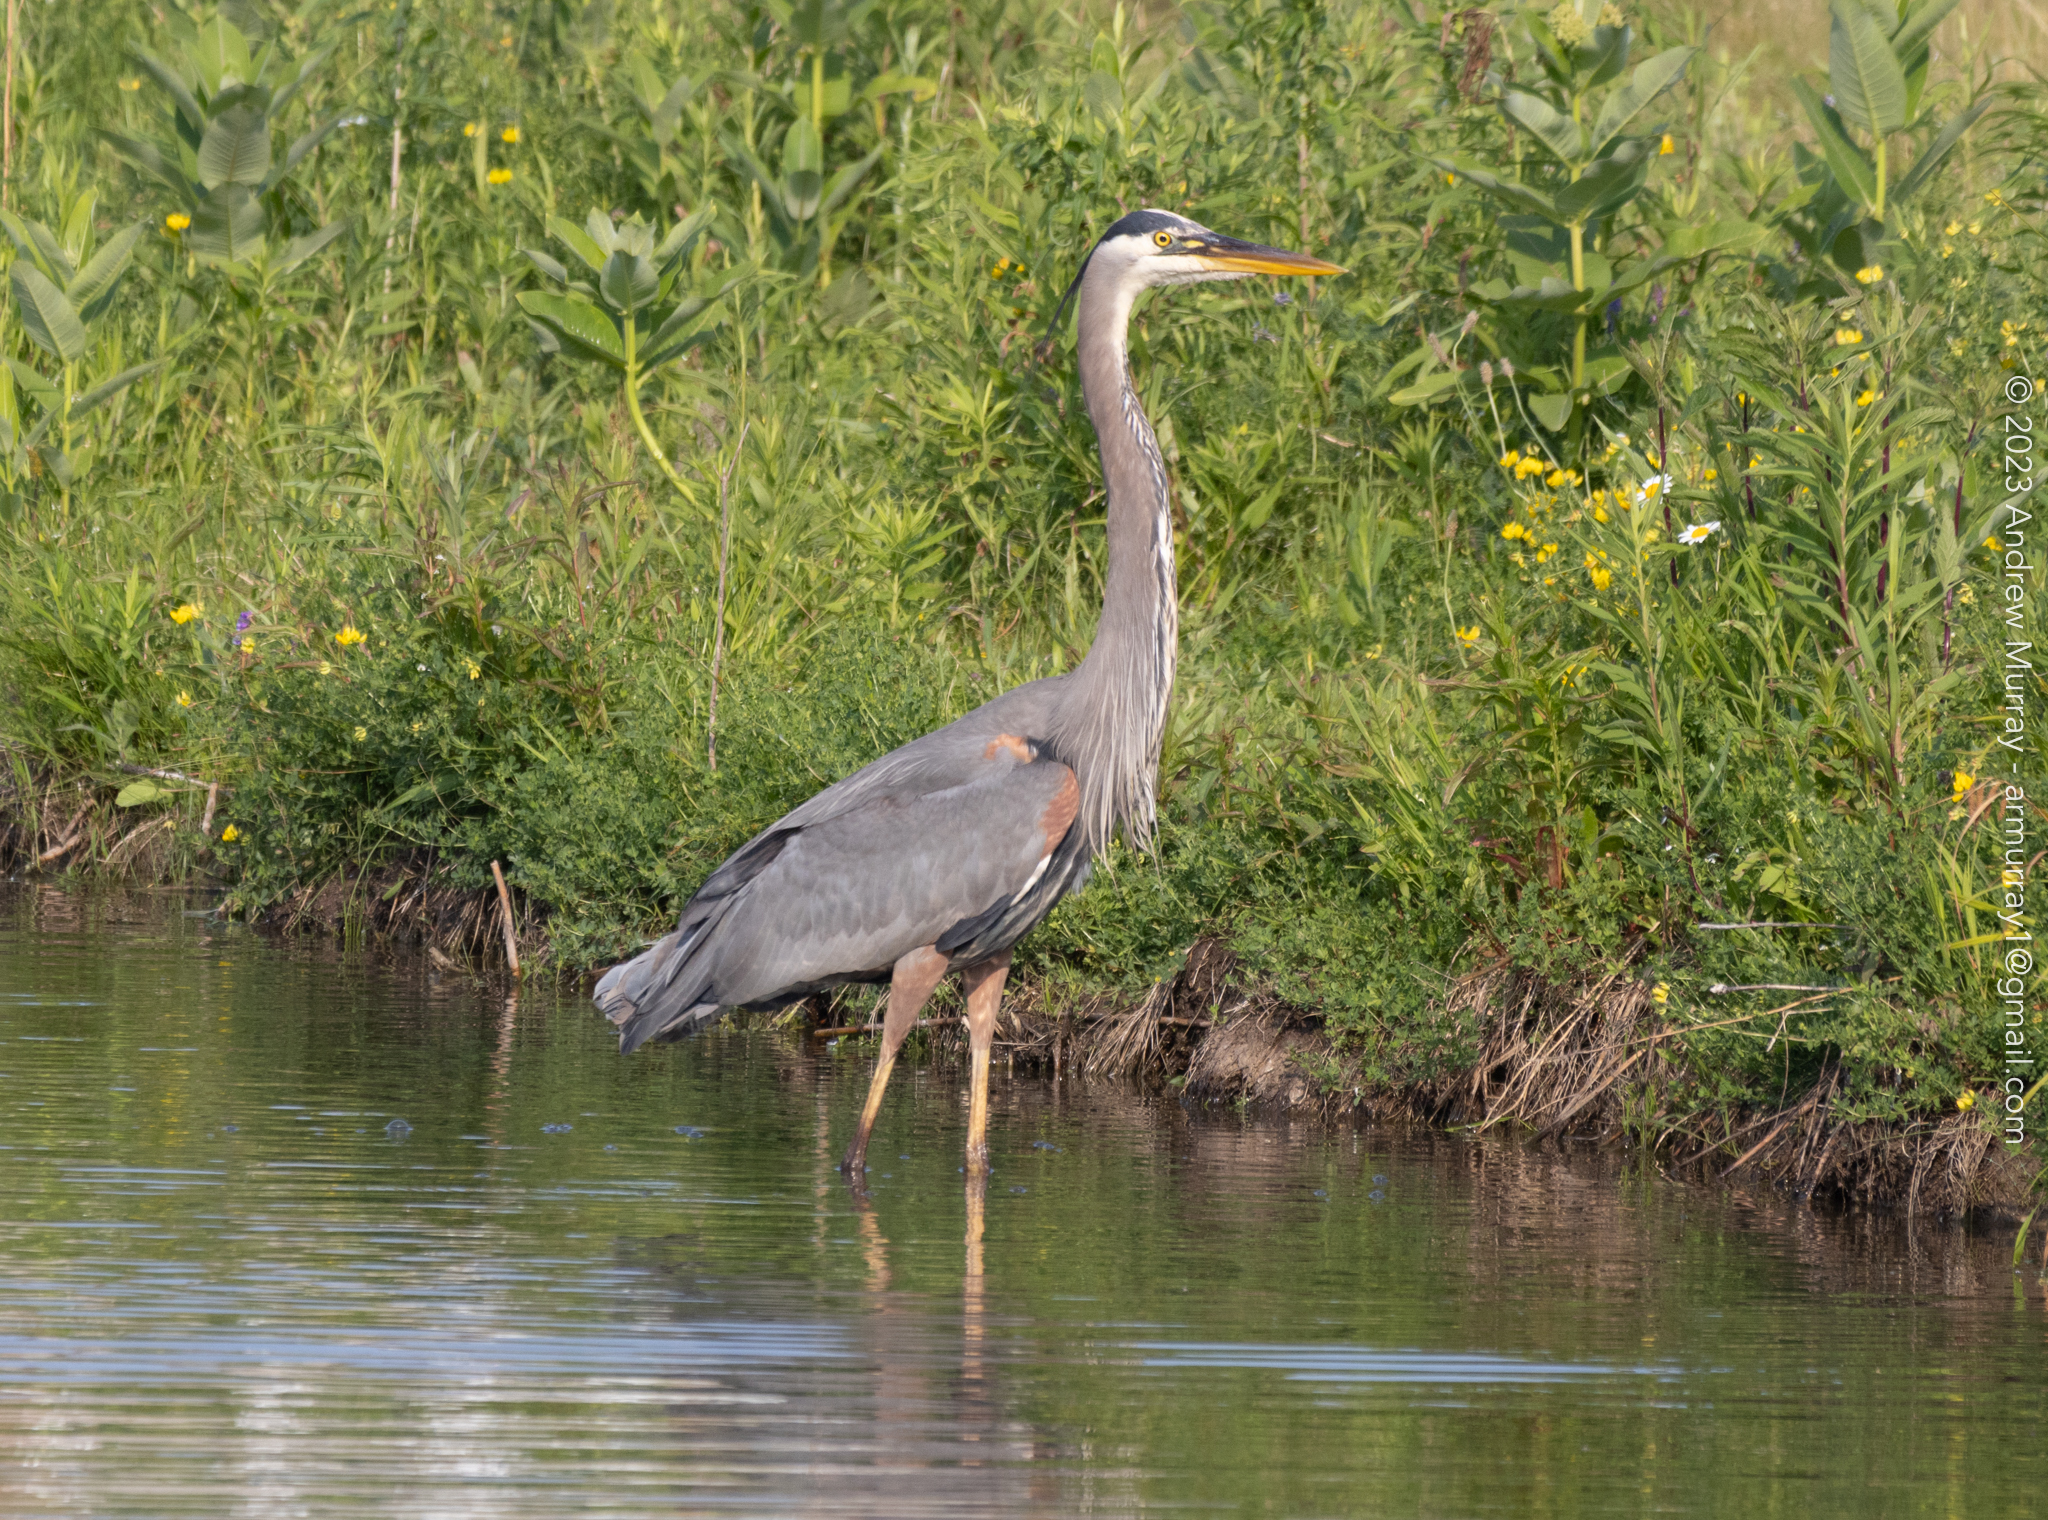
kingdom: Animalia
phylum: Chordata
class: Aves
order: Pelecaniformes
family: Ardeidae
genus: Ardea
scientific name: Ardea herodias
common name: Great blue heron
